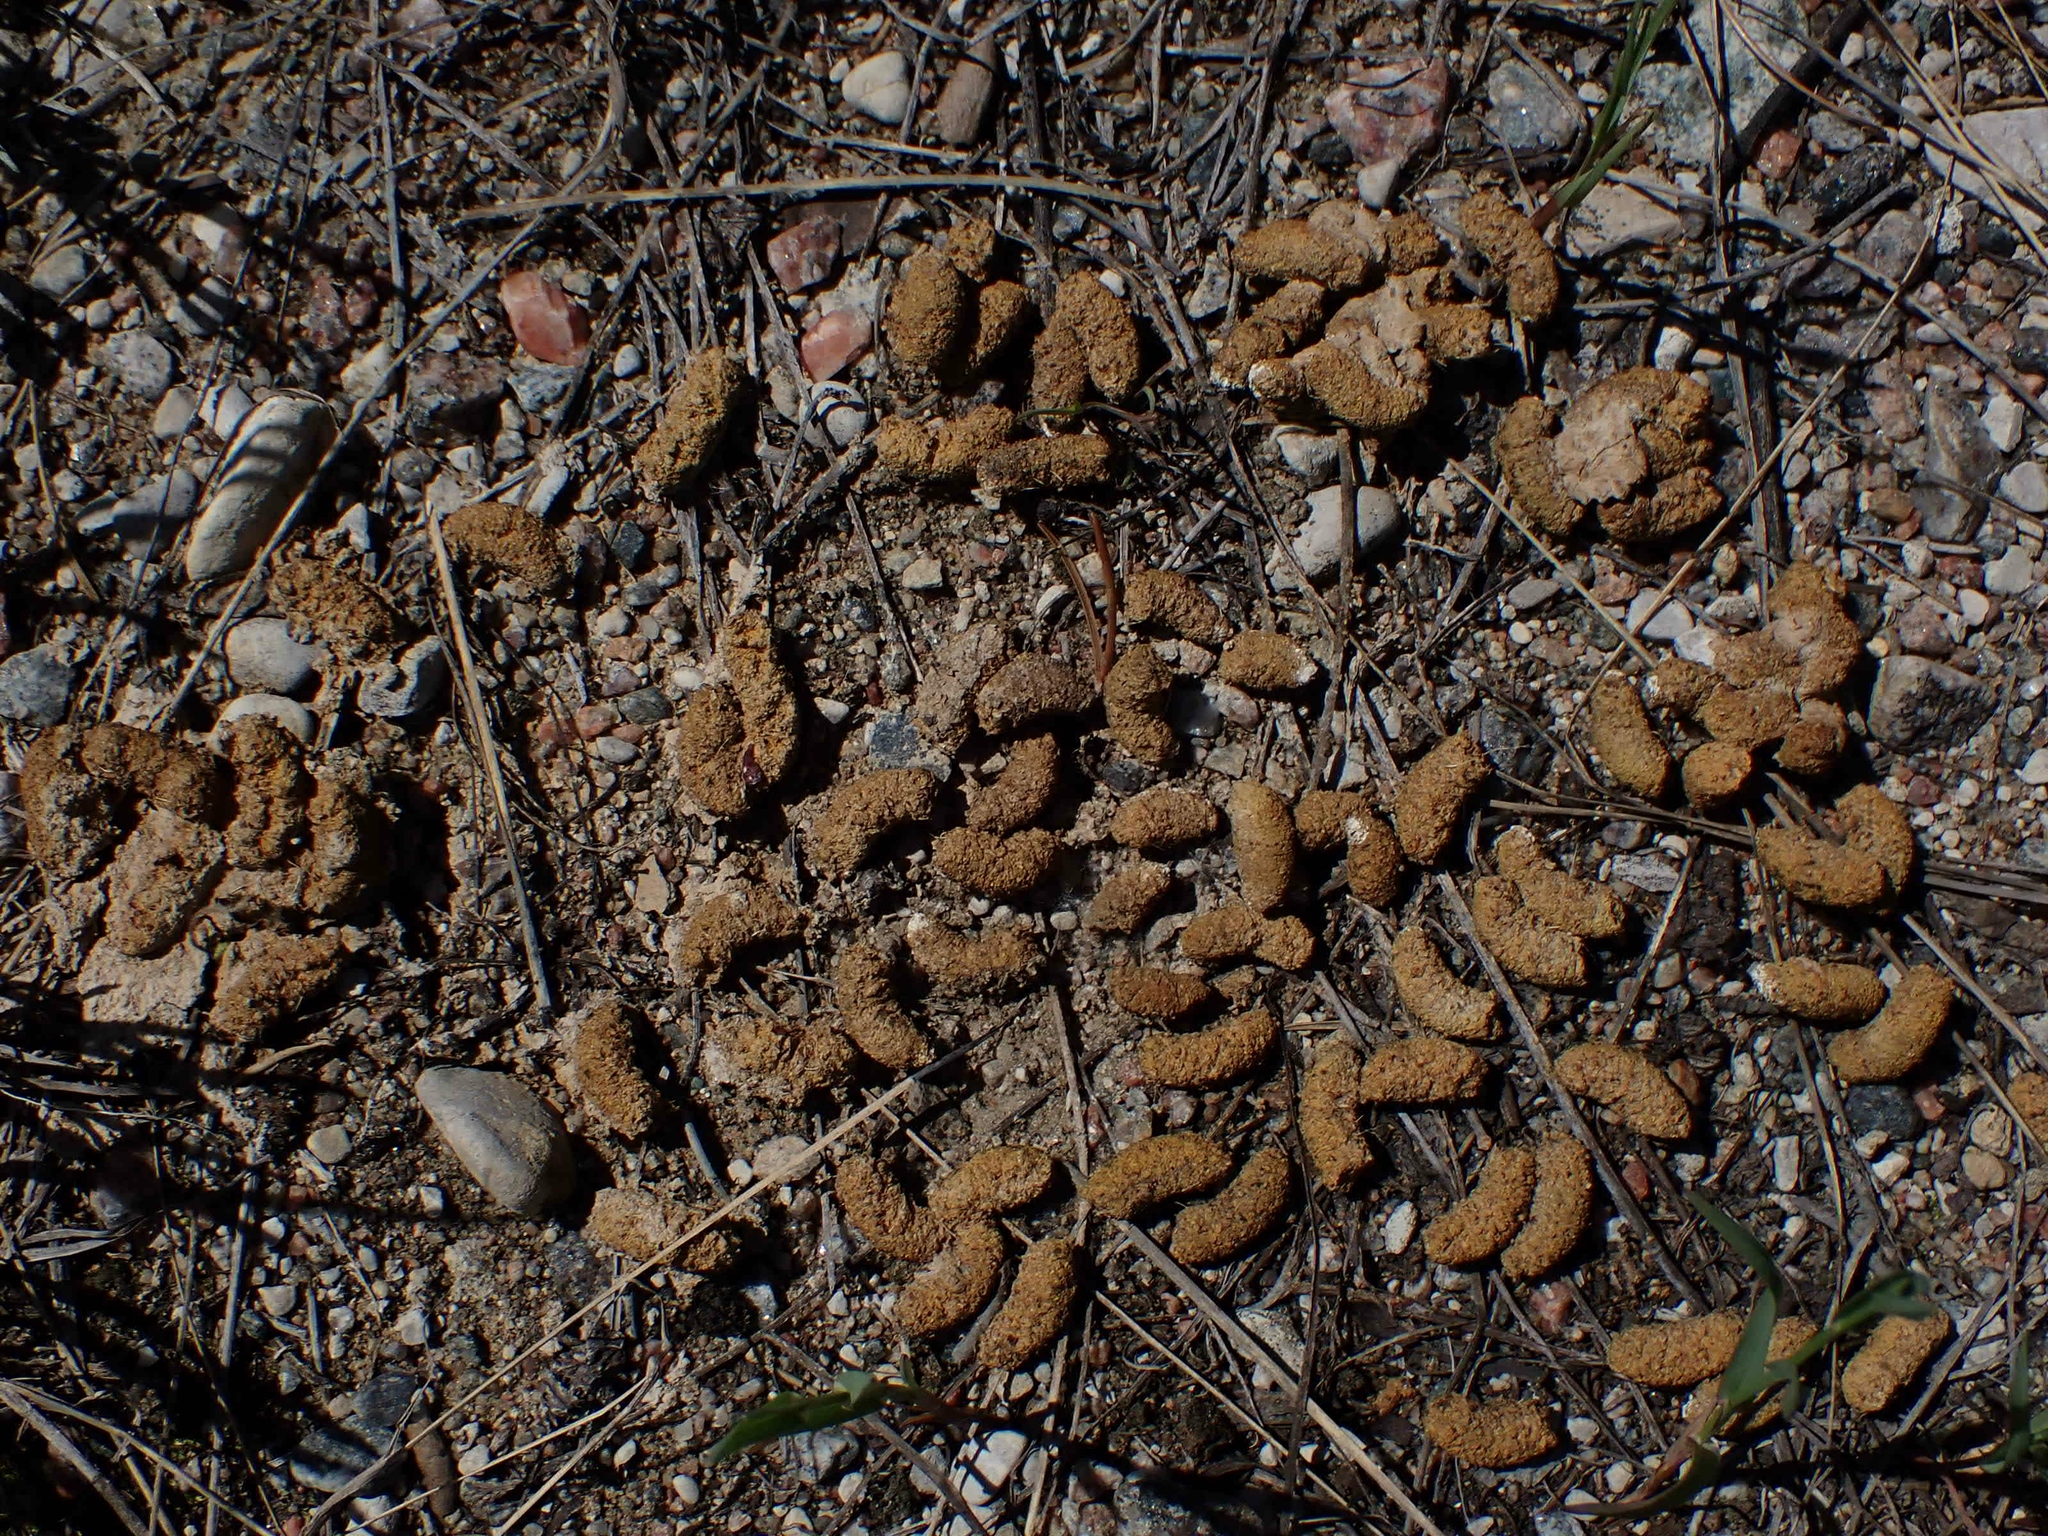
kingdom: Animalia
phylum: Chordata
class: Aves
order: Galliformes
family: Phasianidae
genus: Bonasa
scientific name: Bonasa umbellus
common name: Ruffed grouse
